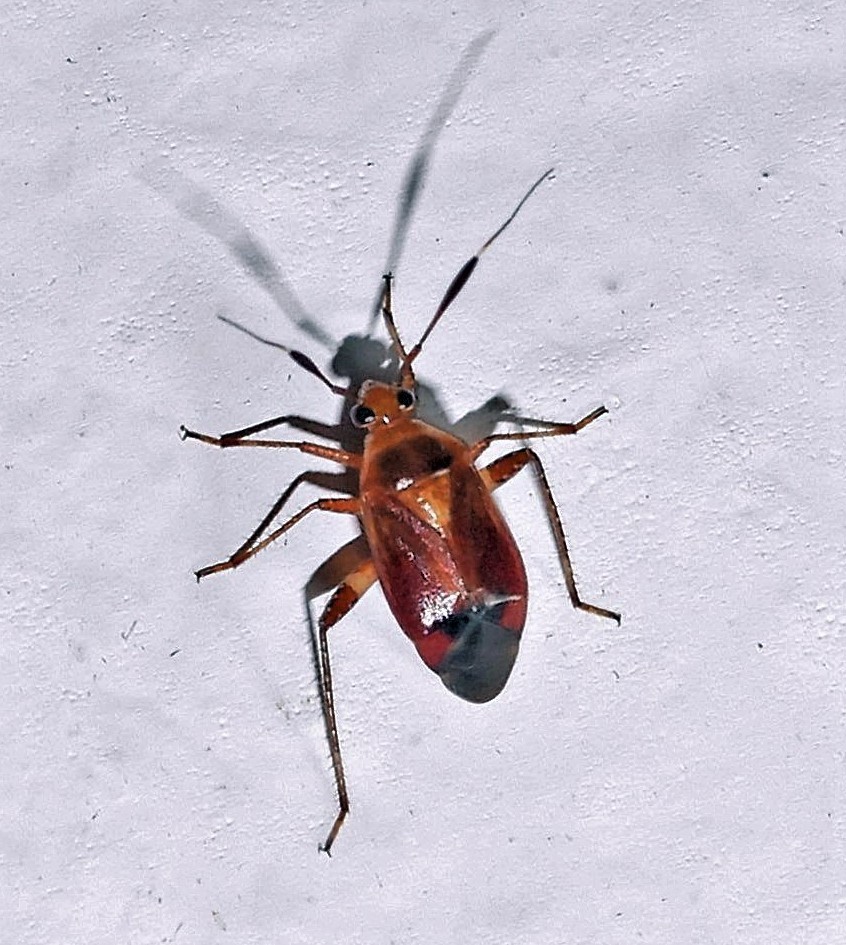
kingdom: Animalia
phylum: Arthropoda
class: Insecta
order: Hemiptera
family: Miridae
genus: Horciasinus
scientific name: Horciasinus argentinus
